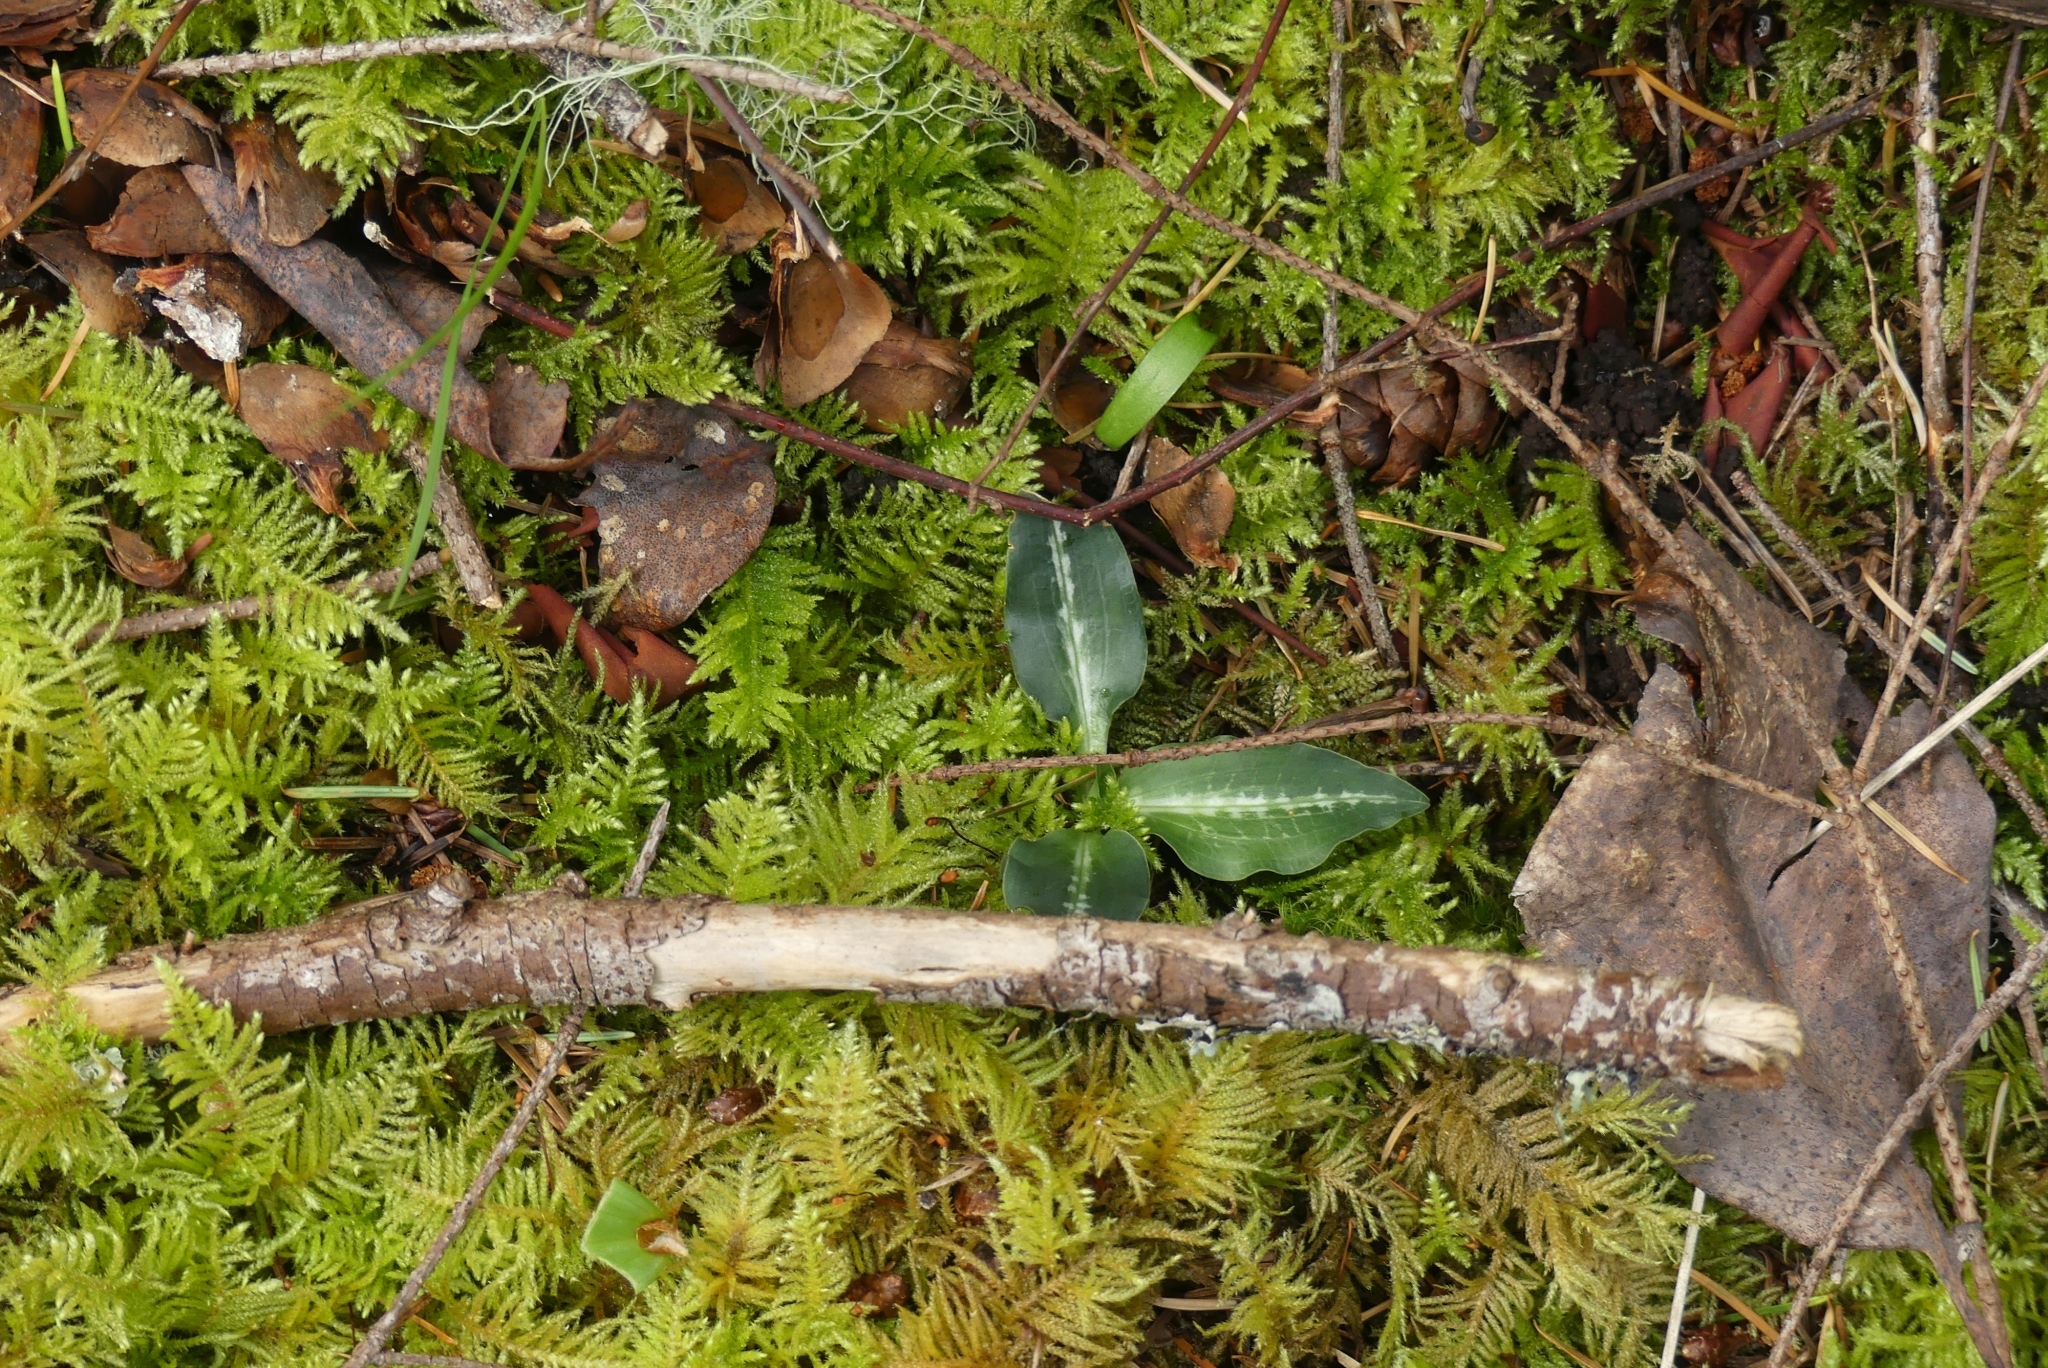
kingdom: Plantae
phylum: Tracheophyta
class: Liliopsida
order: Asparagales
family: Orchidaceae
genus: Goodyera
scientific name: Goodyera oblongifolia
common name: Giant rattlesnake-plantain
